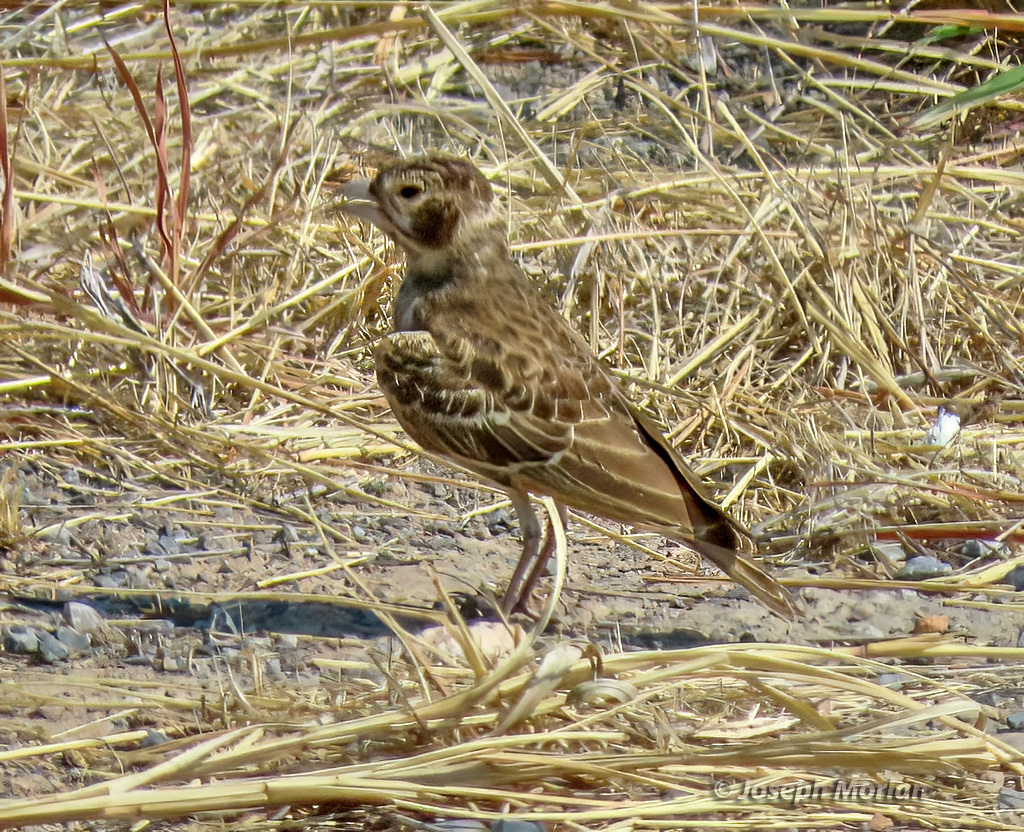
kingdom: Animalia
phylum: Chordata
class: Aves
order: Passeriformes
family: Alaudidae
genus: Eremopterix
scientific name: Eremopterix leucotis
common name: Chestnut-backed sparrow-lark
